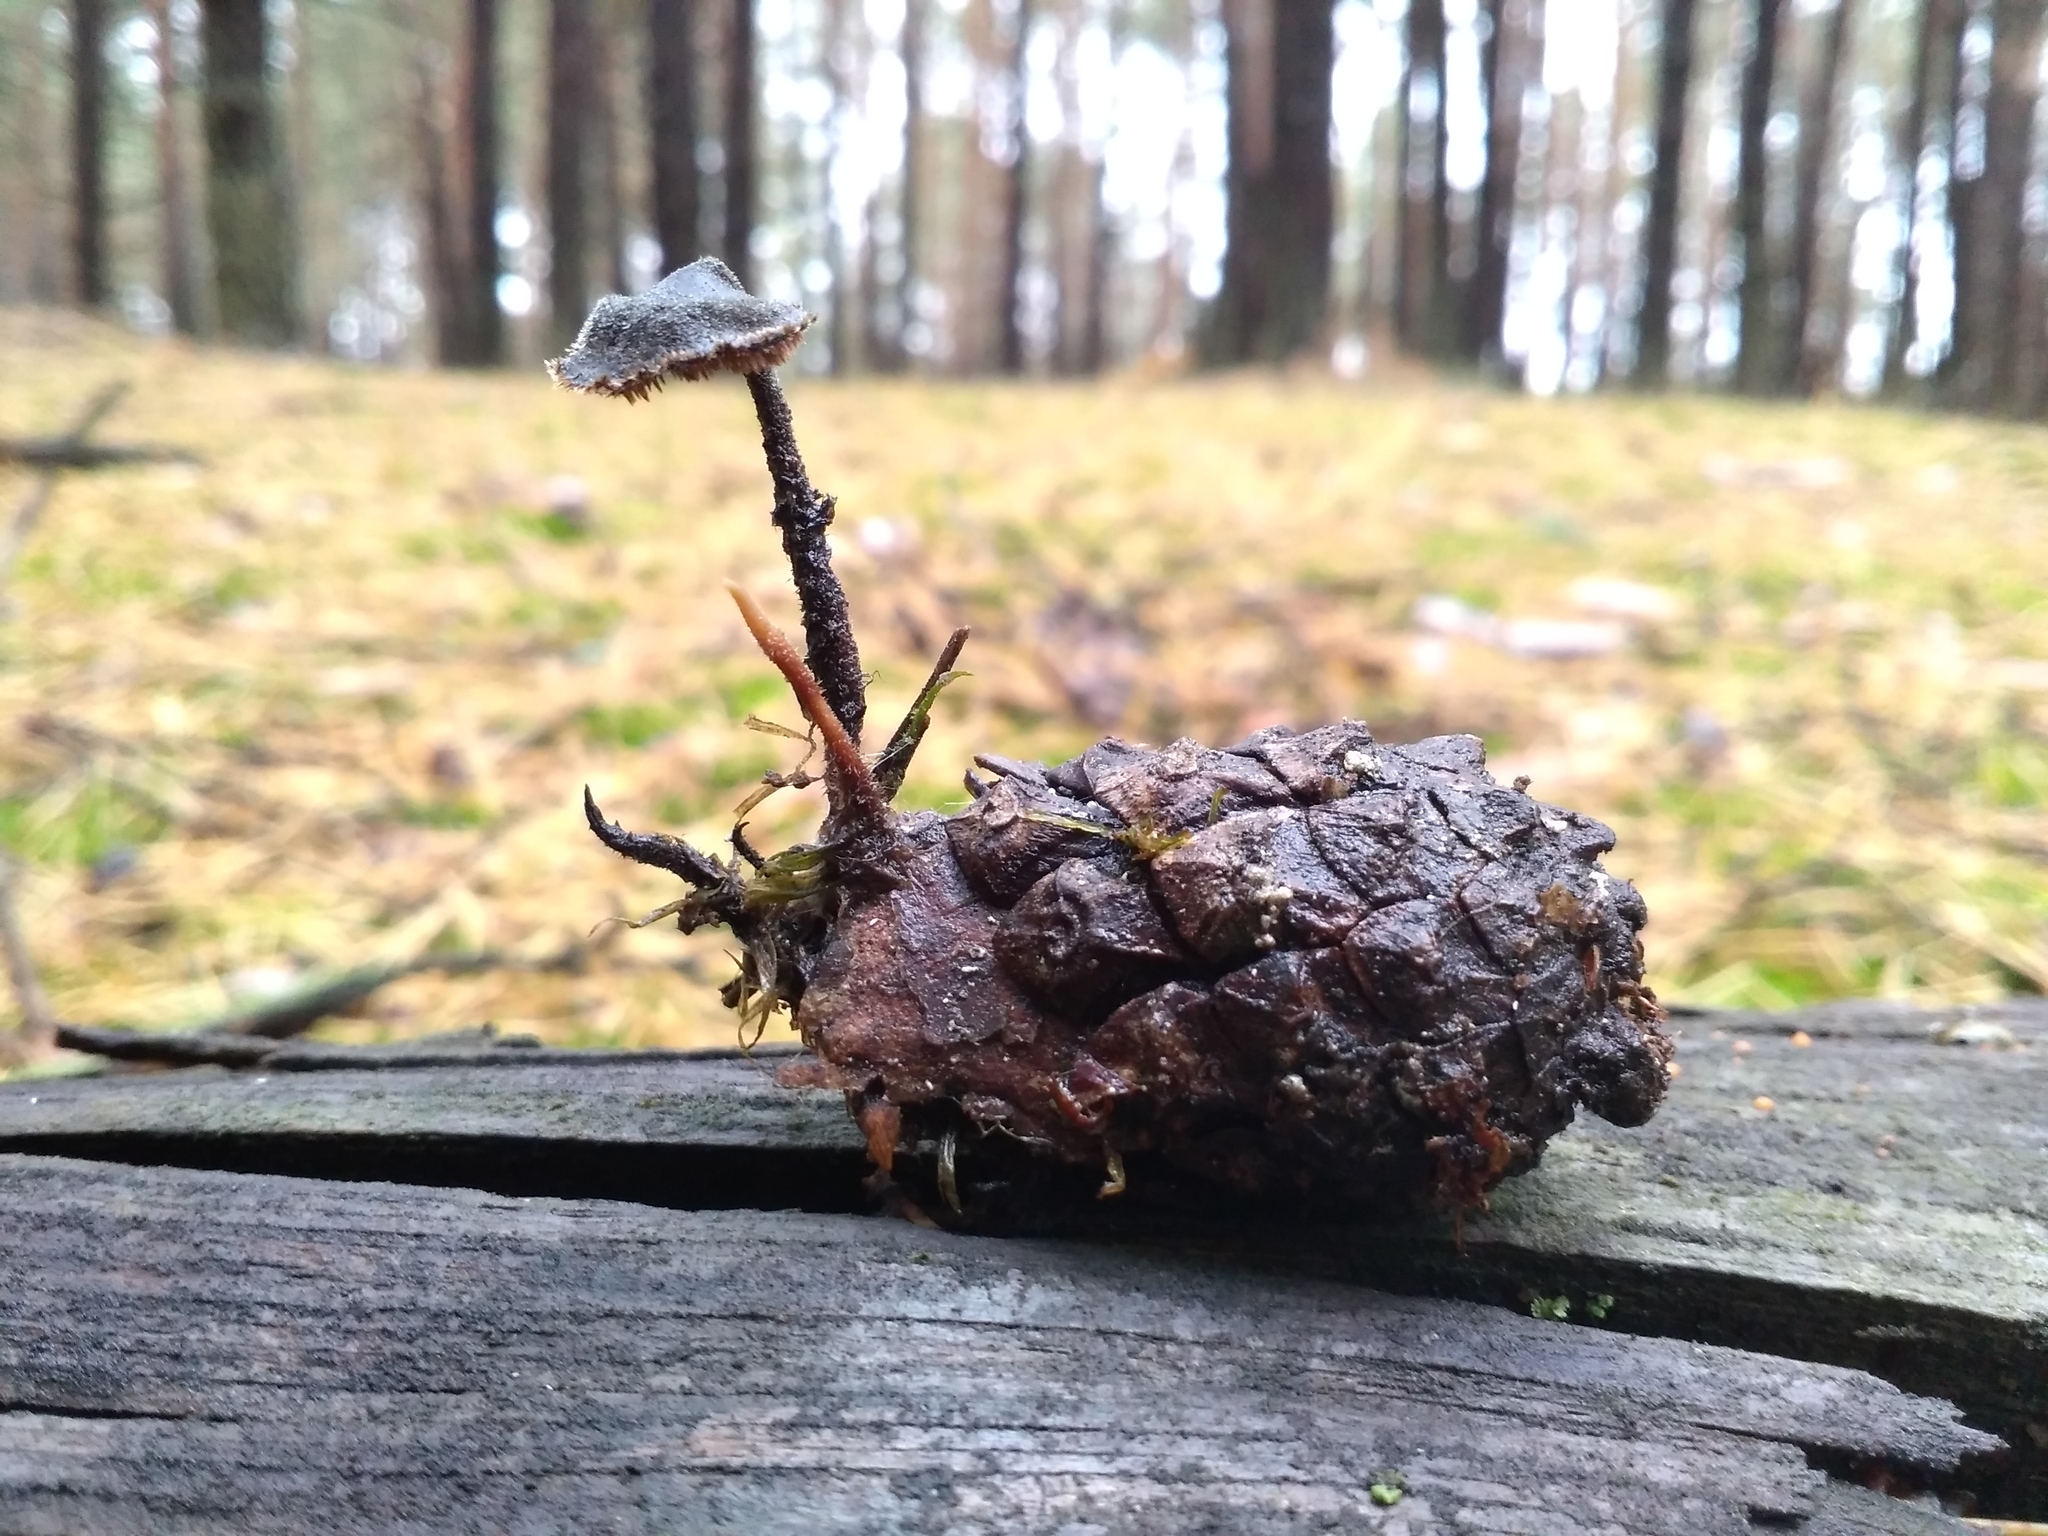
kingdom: Fungi
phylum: Basidiomycota
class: Agaricomycetes
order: Russulales
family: Auriscalpiaceae
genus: Auriscalpium
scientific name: Auriscalpium vulgare
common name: Earpick fungus
